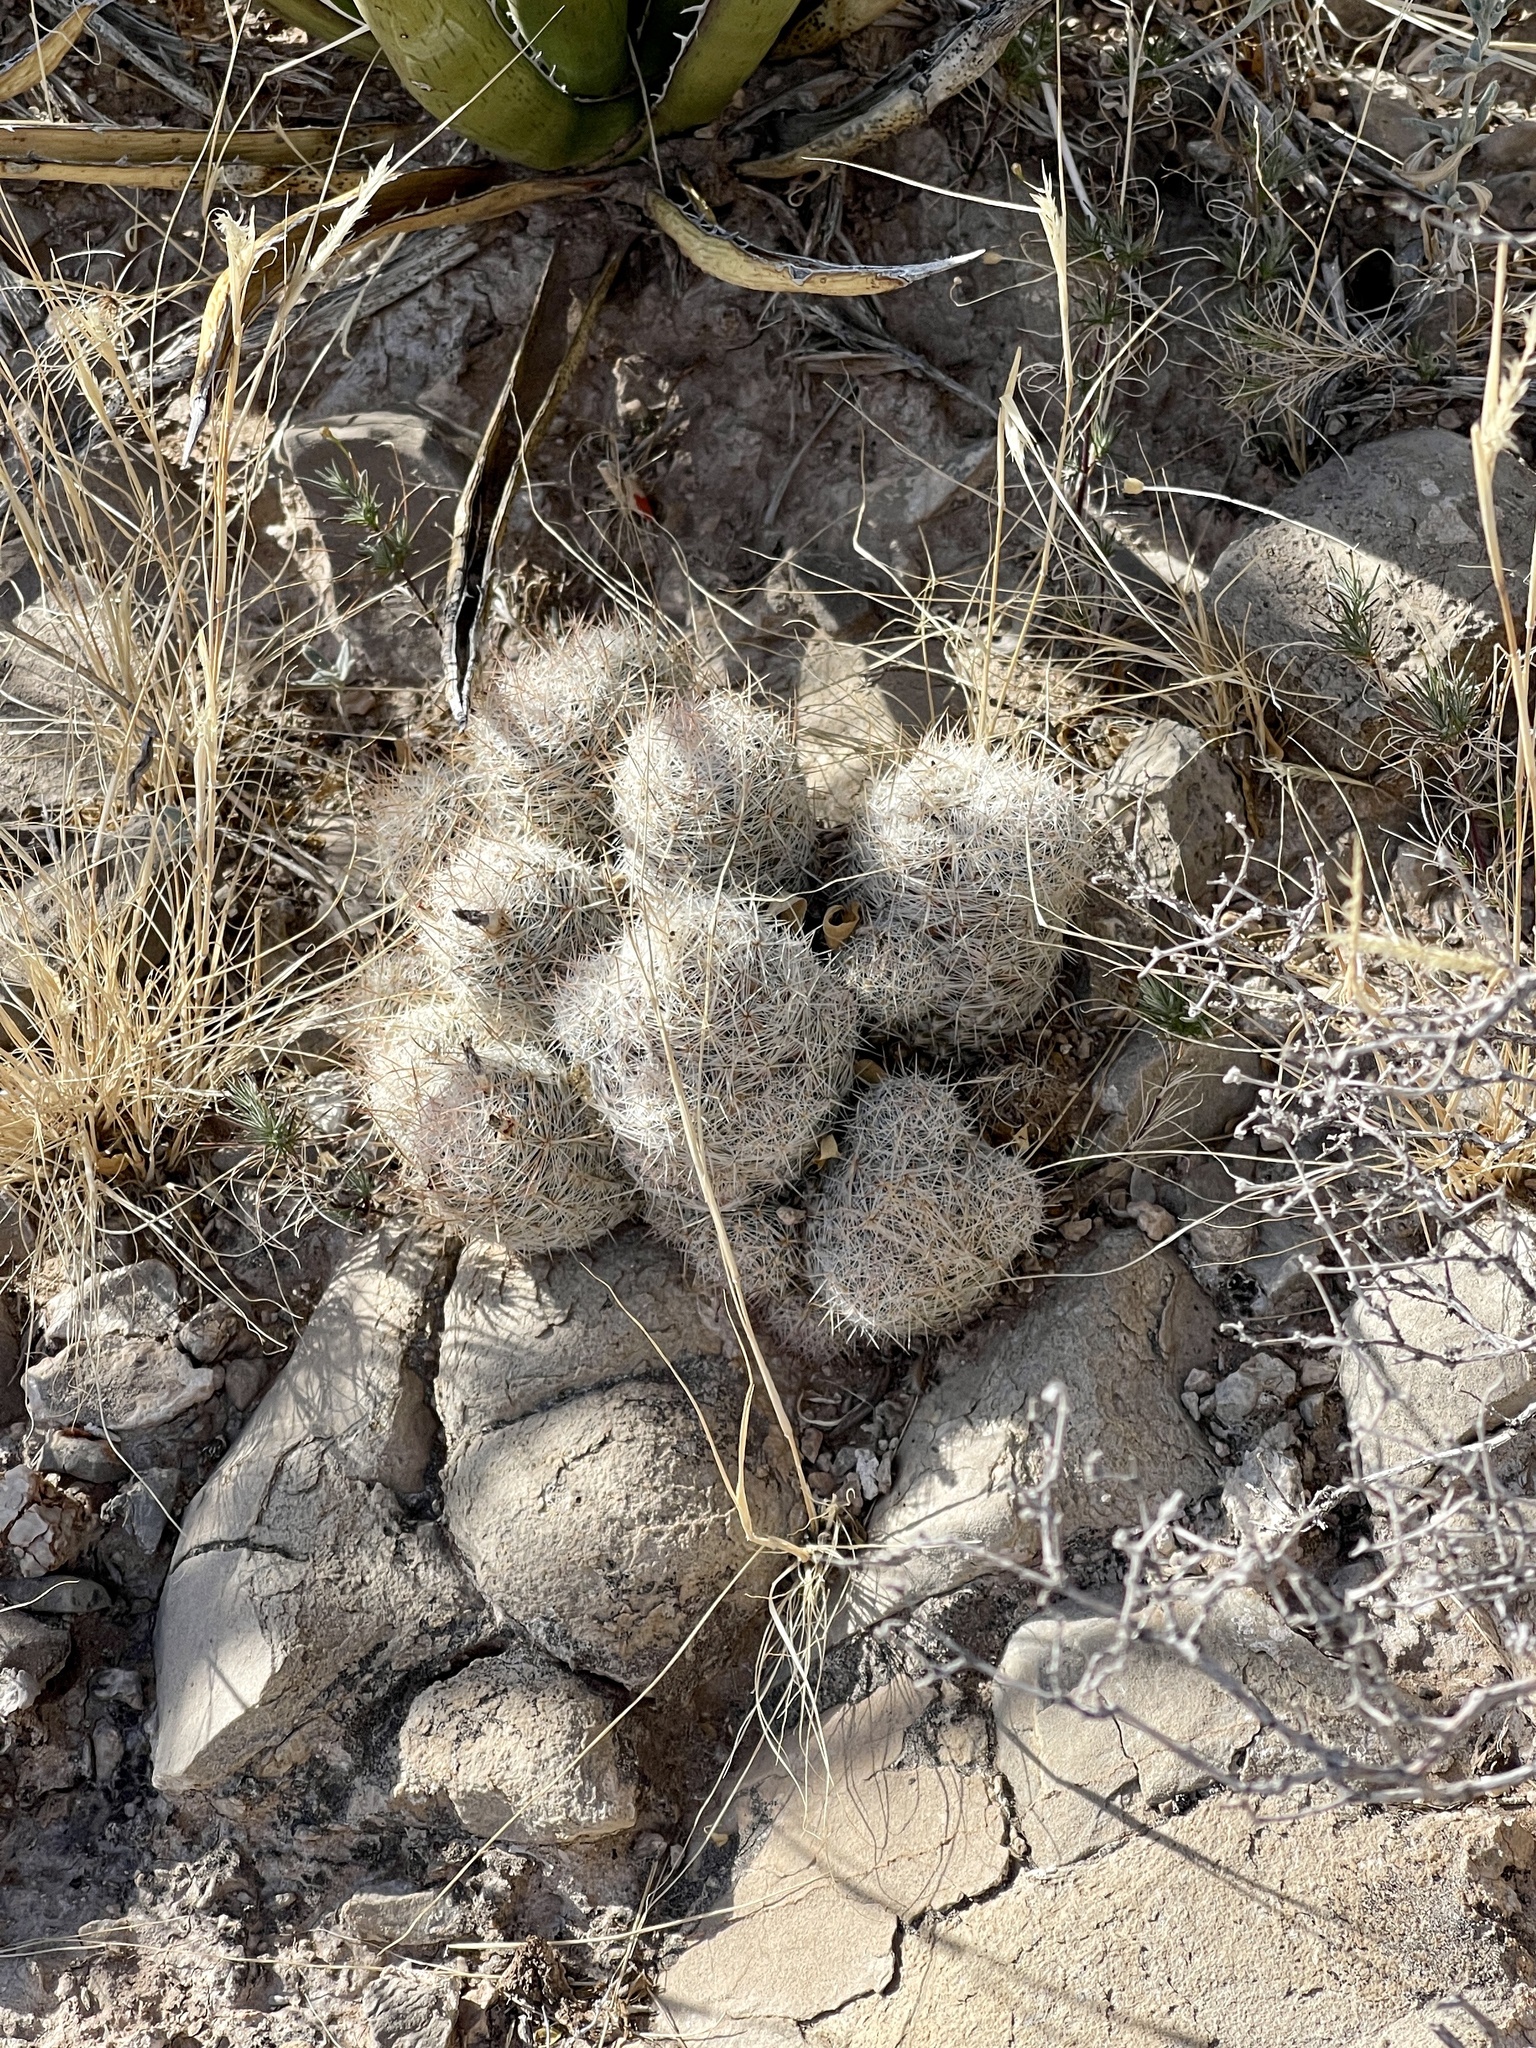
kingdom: Plantae
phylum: Tracheophyta
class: Magnoliopsida
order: Caryophyllales
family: Cactaceae
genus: Pelecyphora
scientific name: Pelecyphora tuberculosa
